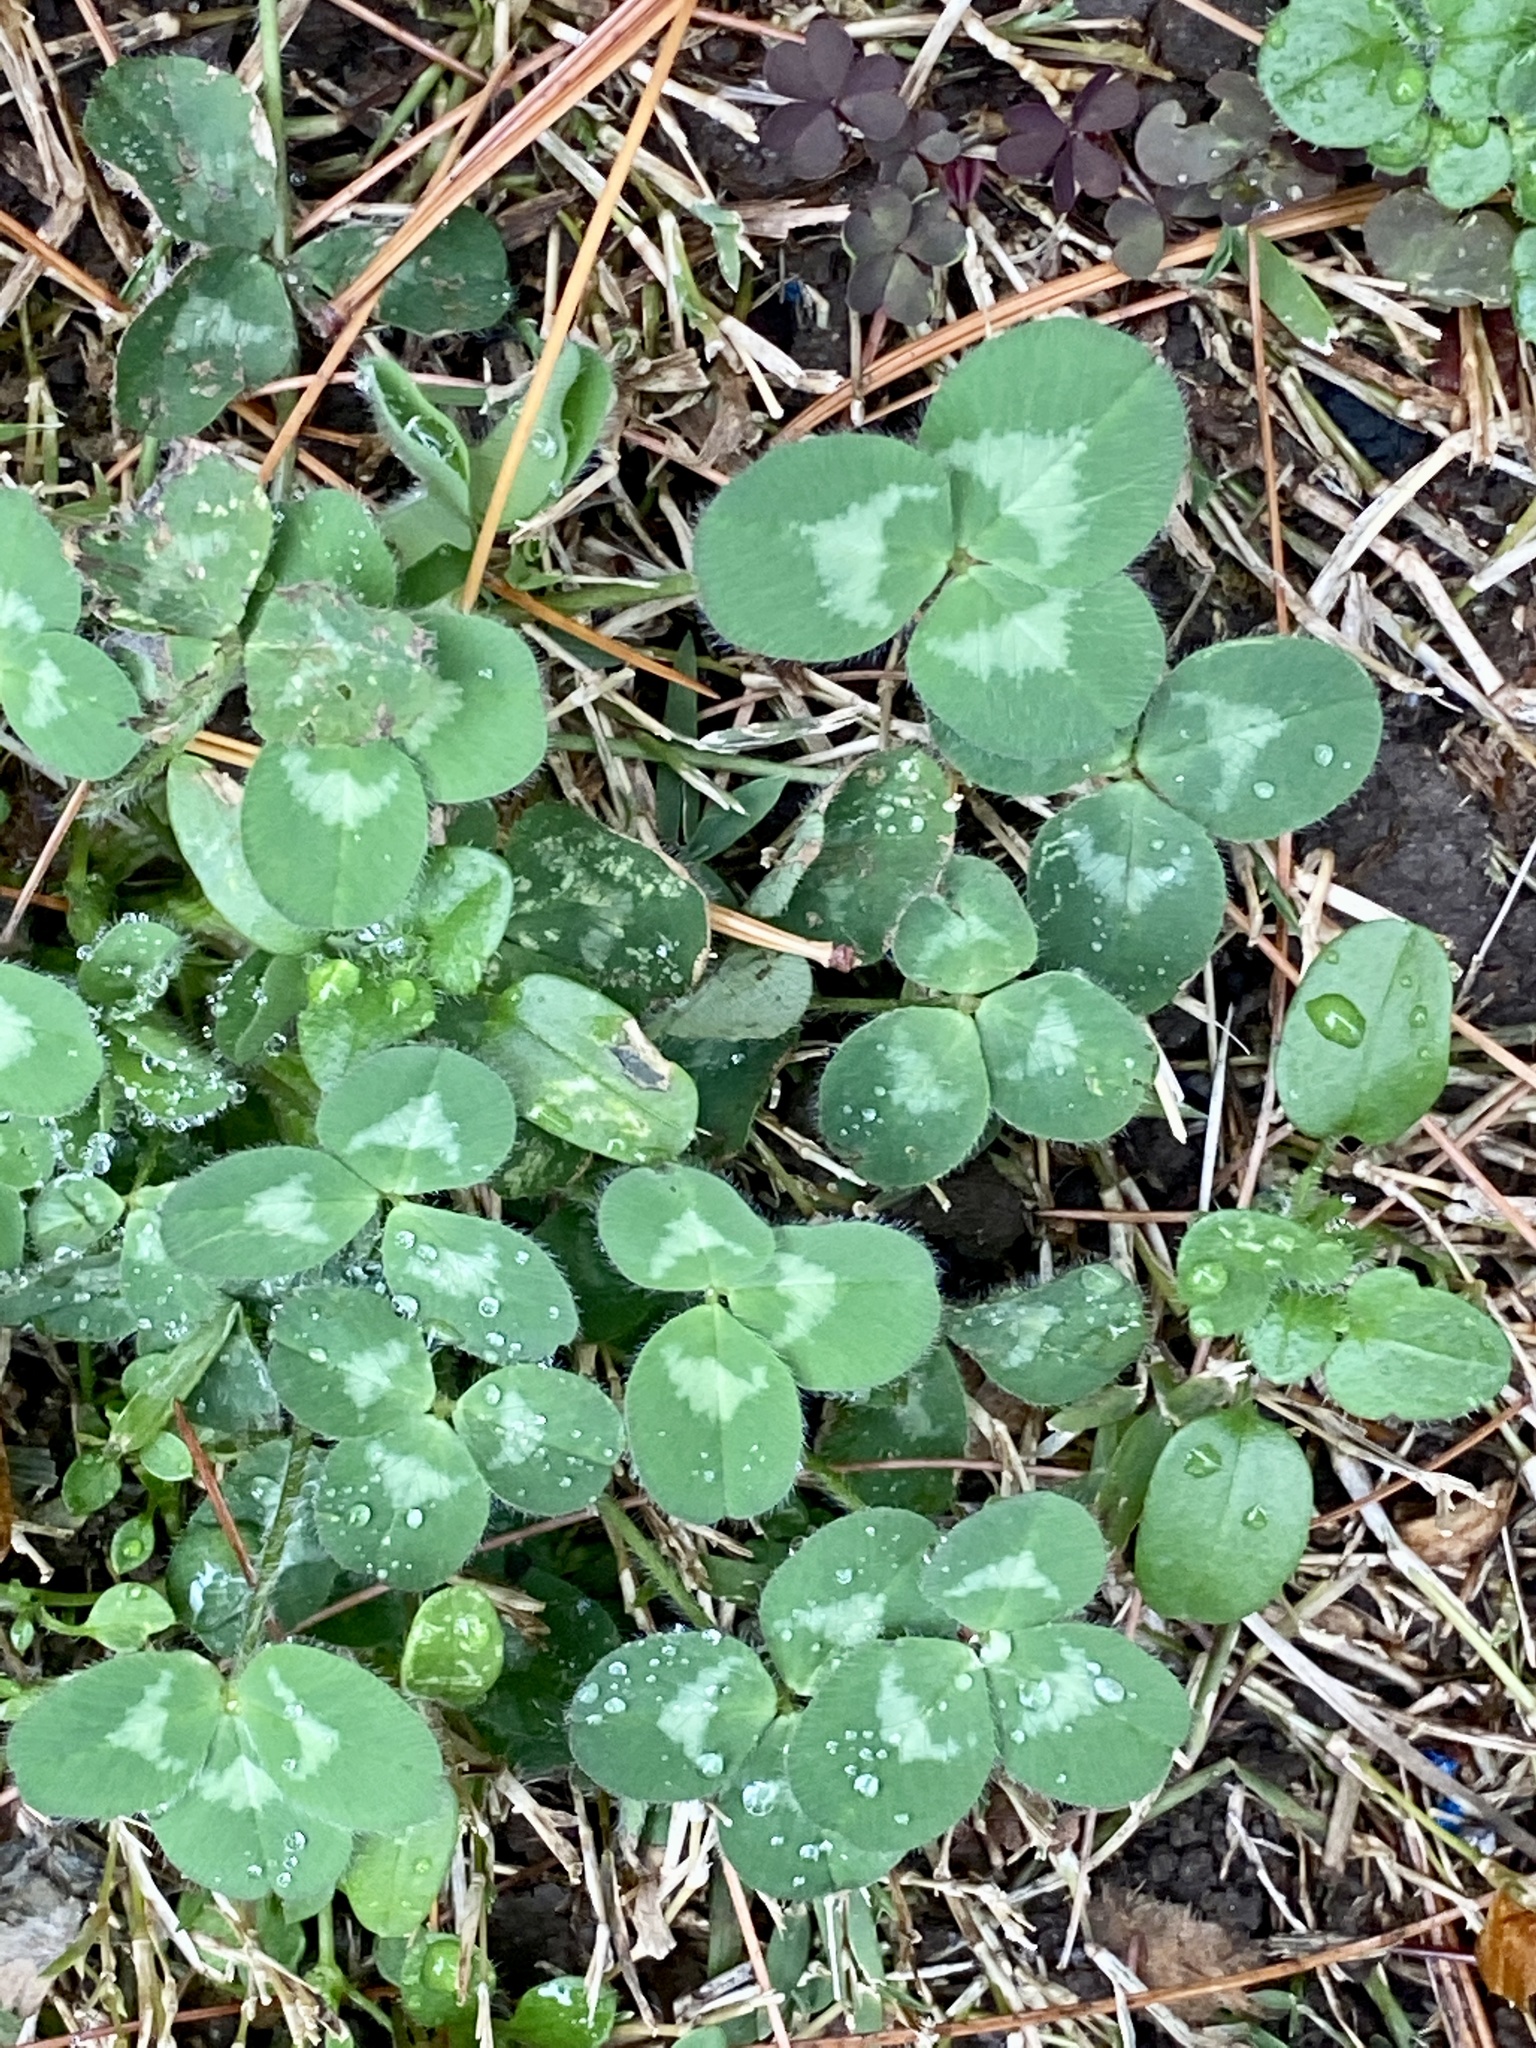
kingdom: Plantae
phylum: Tracheophyta
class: Magnoliopsida
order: Fabales
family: Fabaceae
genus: Trifolium
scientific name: Trifolium pratense
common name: Red clover
